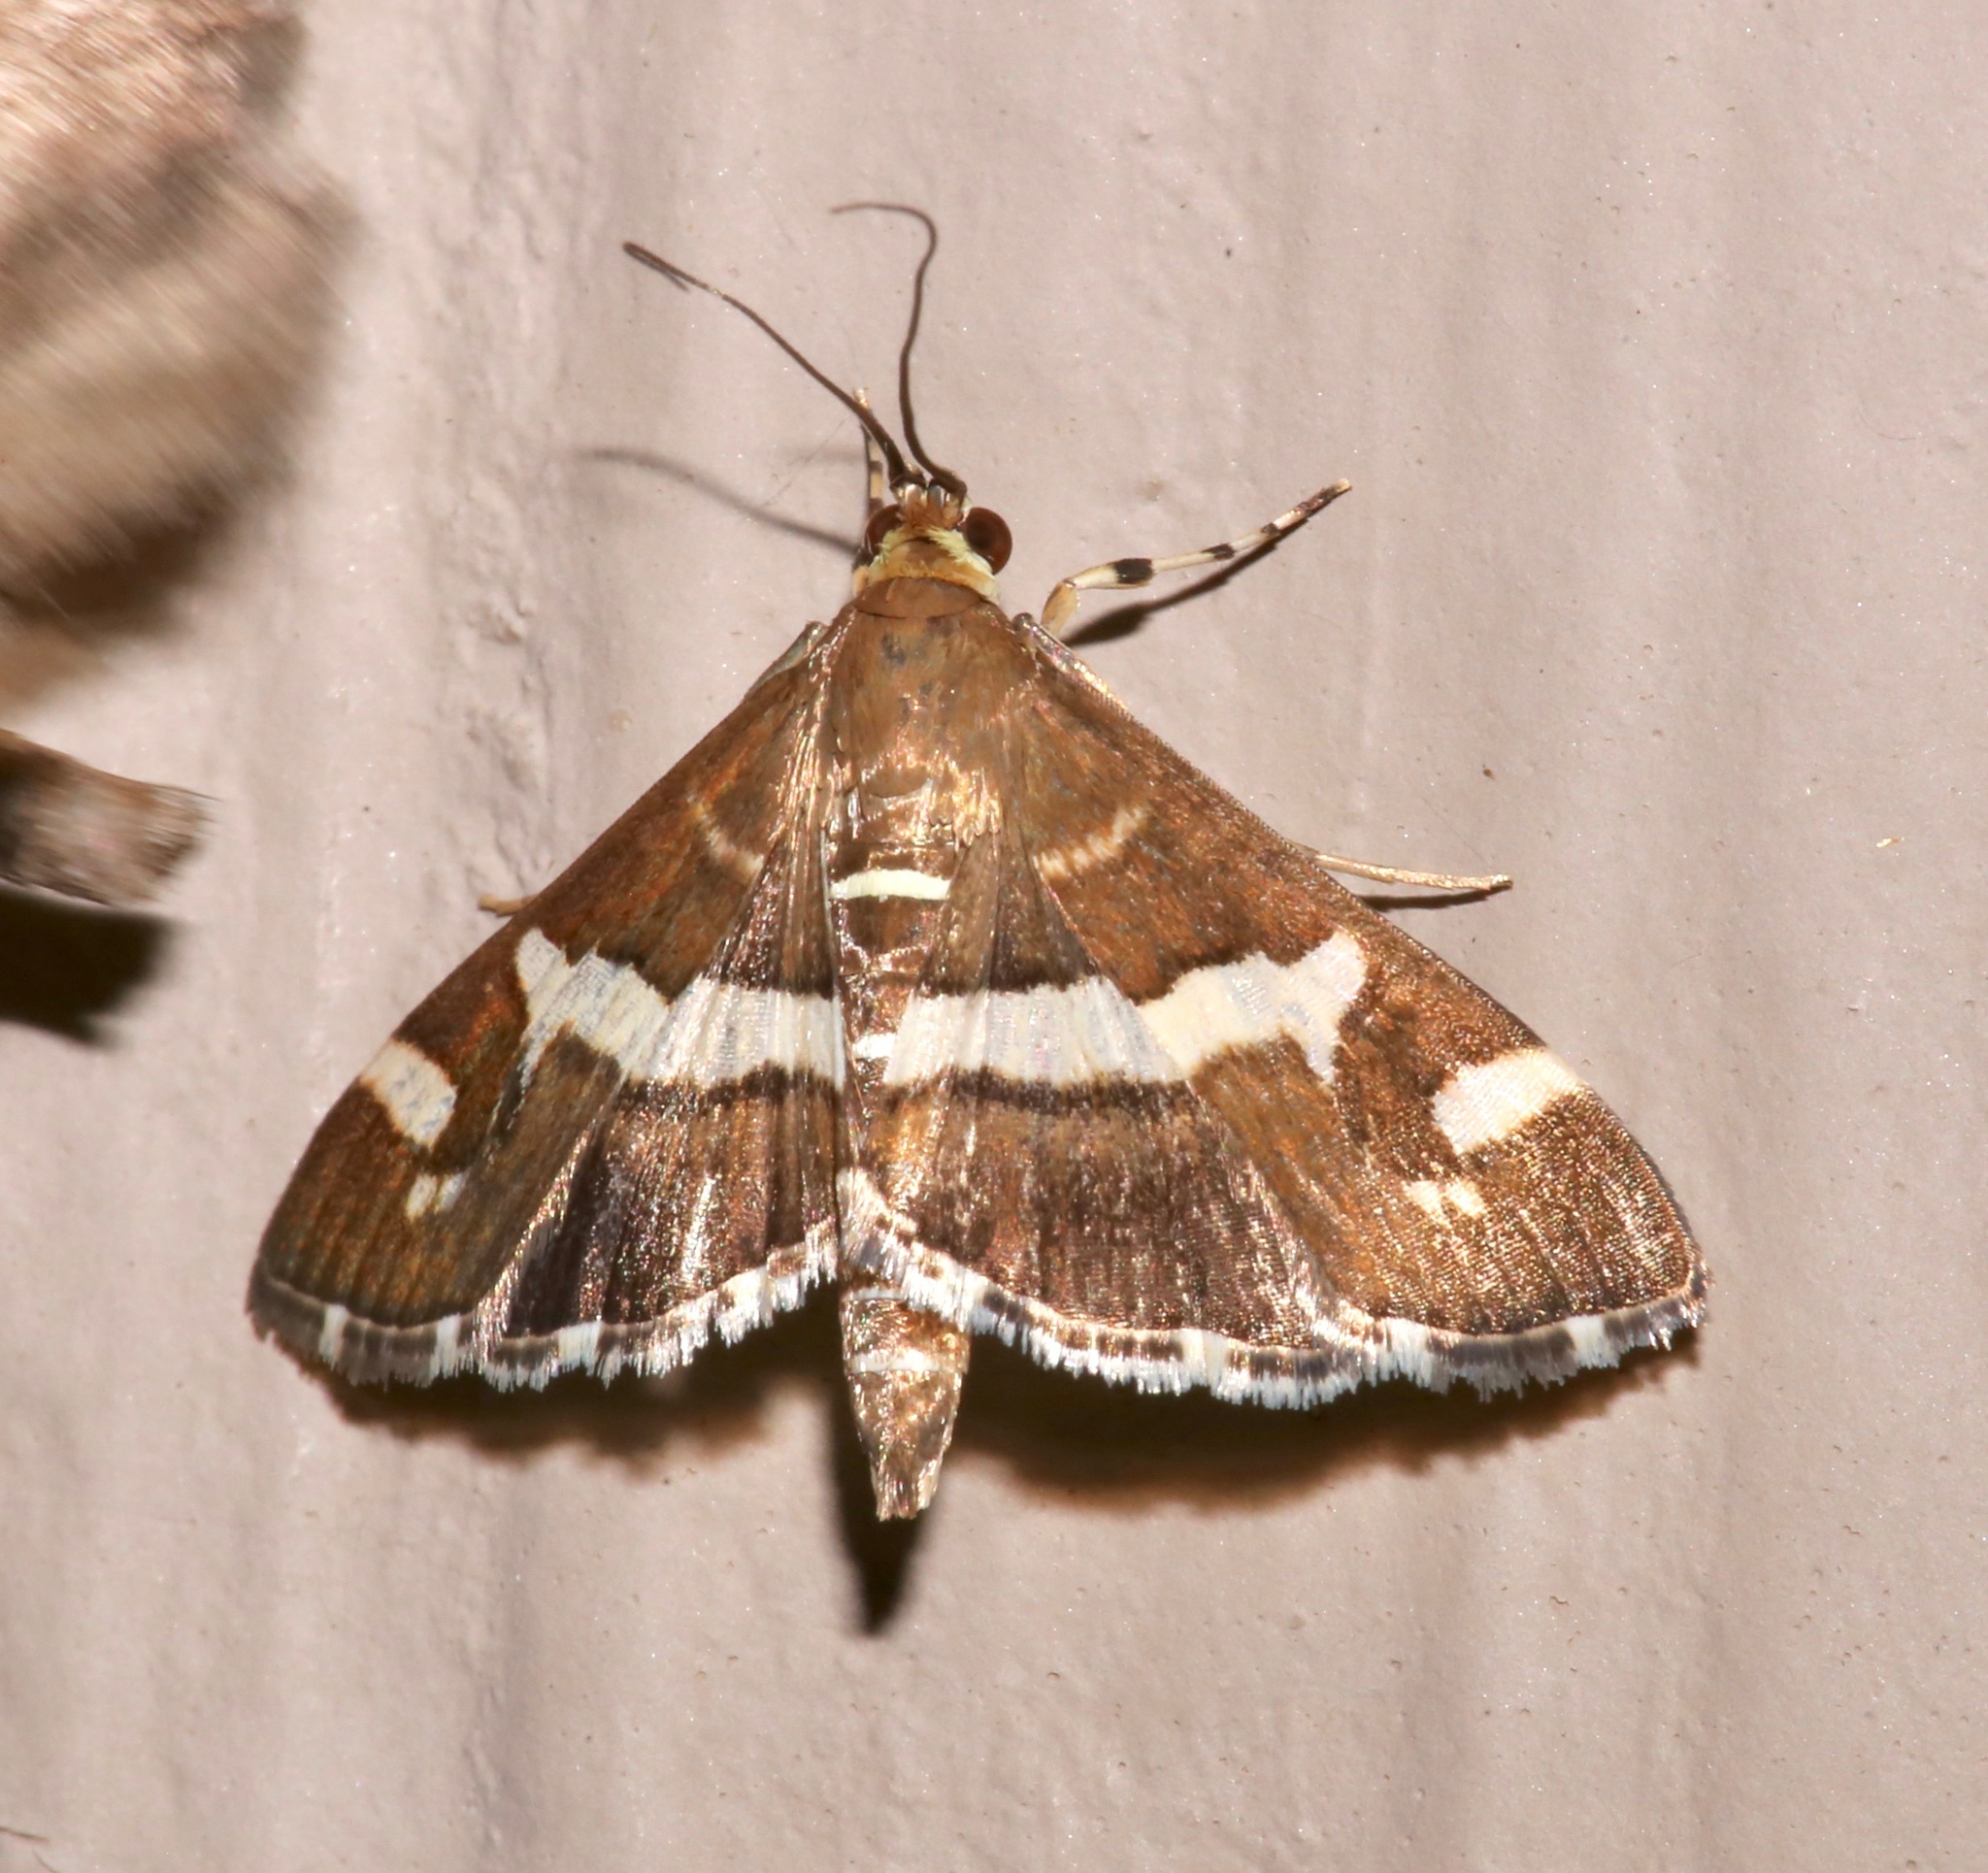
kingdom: Animalia
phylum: Arthropoda
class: Insecta
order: Lepidoptera
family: Crambidae
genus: Spoladea
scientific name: Spoladea recurvalis
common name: Beet webworm moth
